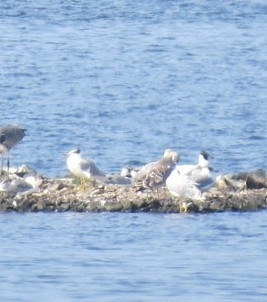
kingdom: Animalia
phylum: Chordata
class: Aves
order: Charadriiformes
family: Laridae
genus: Ichthyaetus
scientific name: Ichthyaetus ichthyaetus
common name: Pallas's gull
